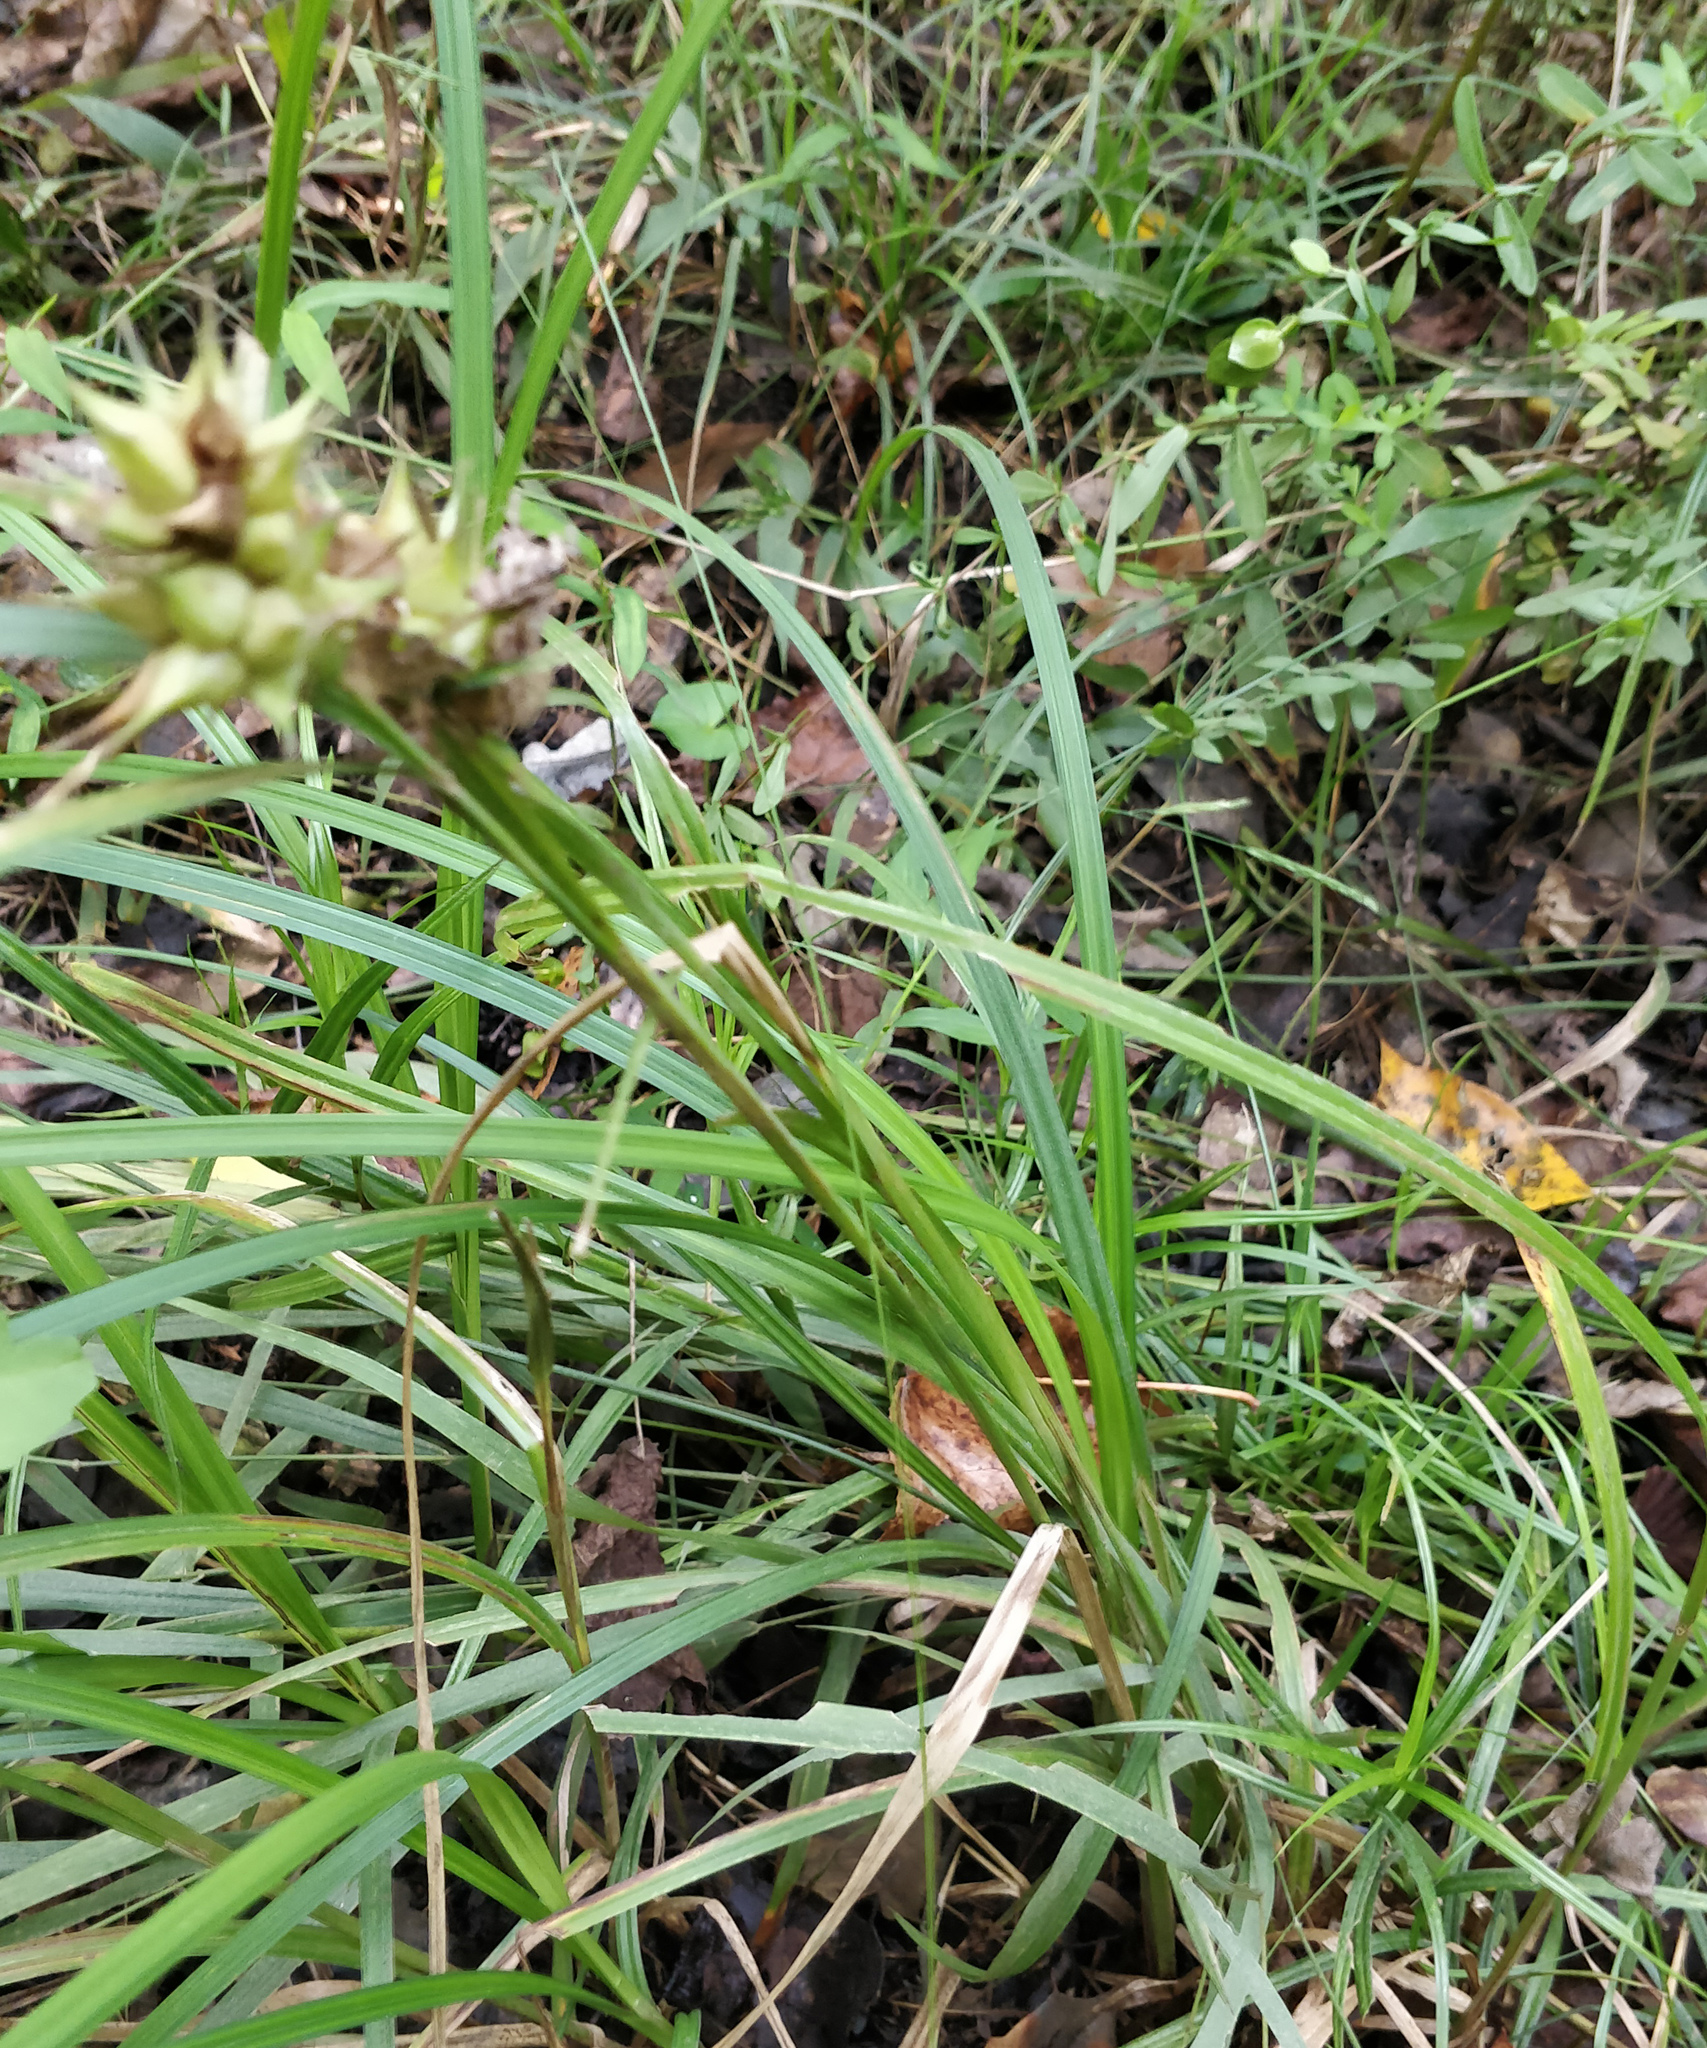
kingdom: Plantae
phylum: Tracheophyta
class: Liliopsida
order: Poales
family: Cyperaceae
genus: Carex
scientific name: Carex lupulina
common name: Hop sedge
